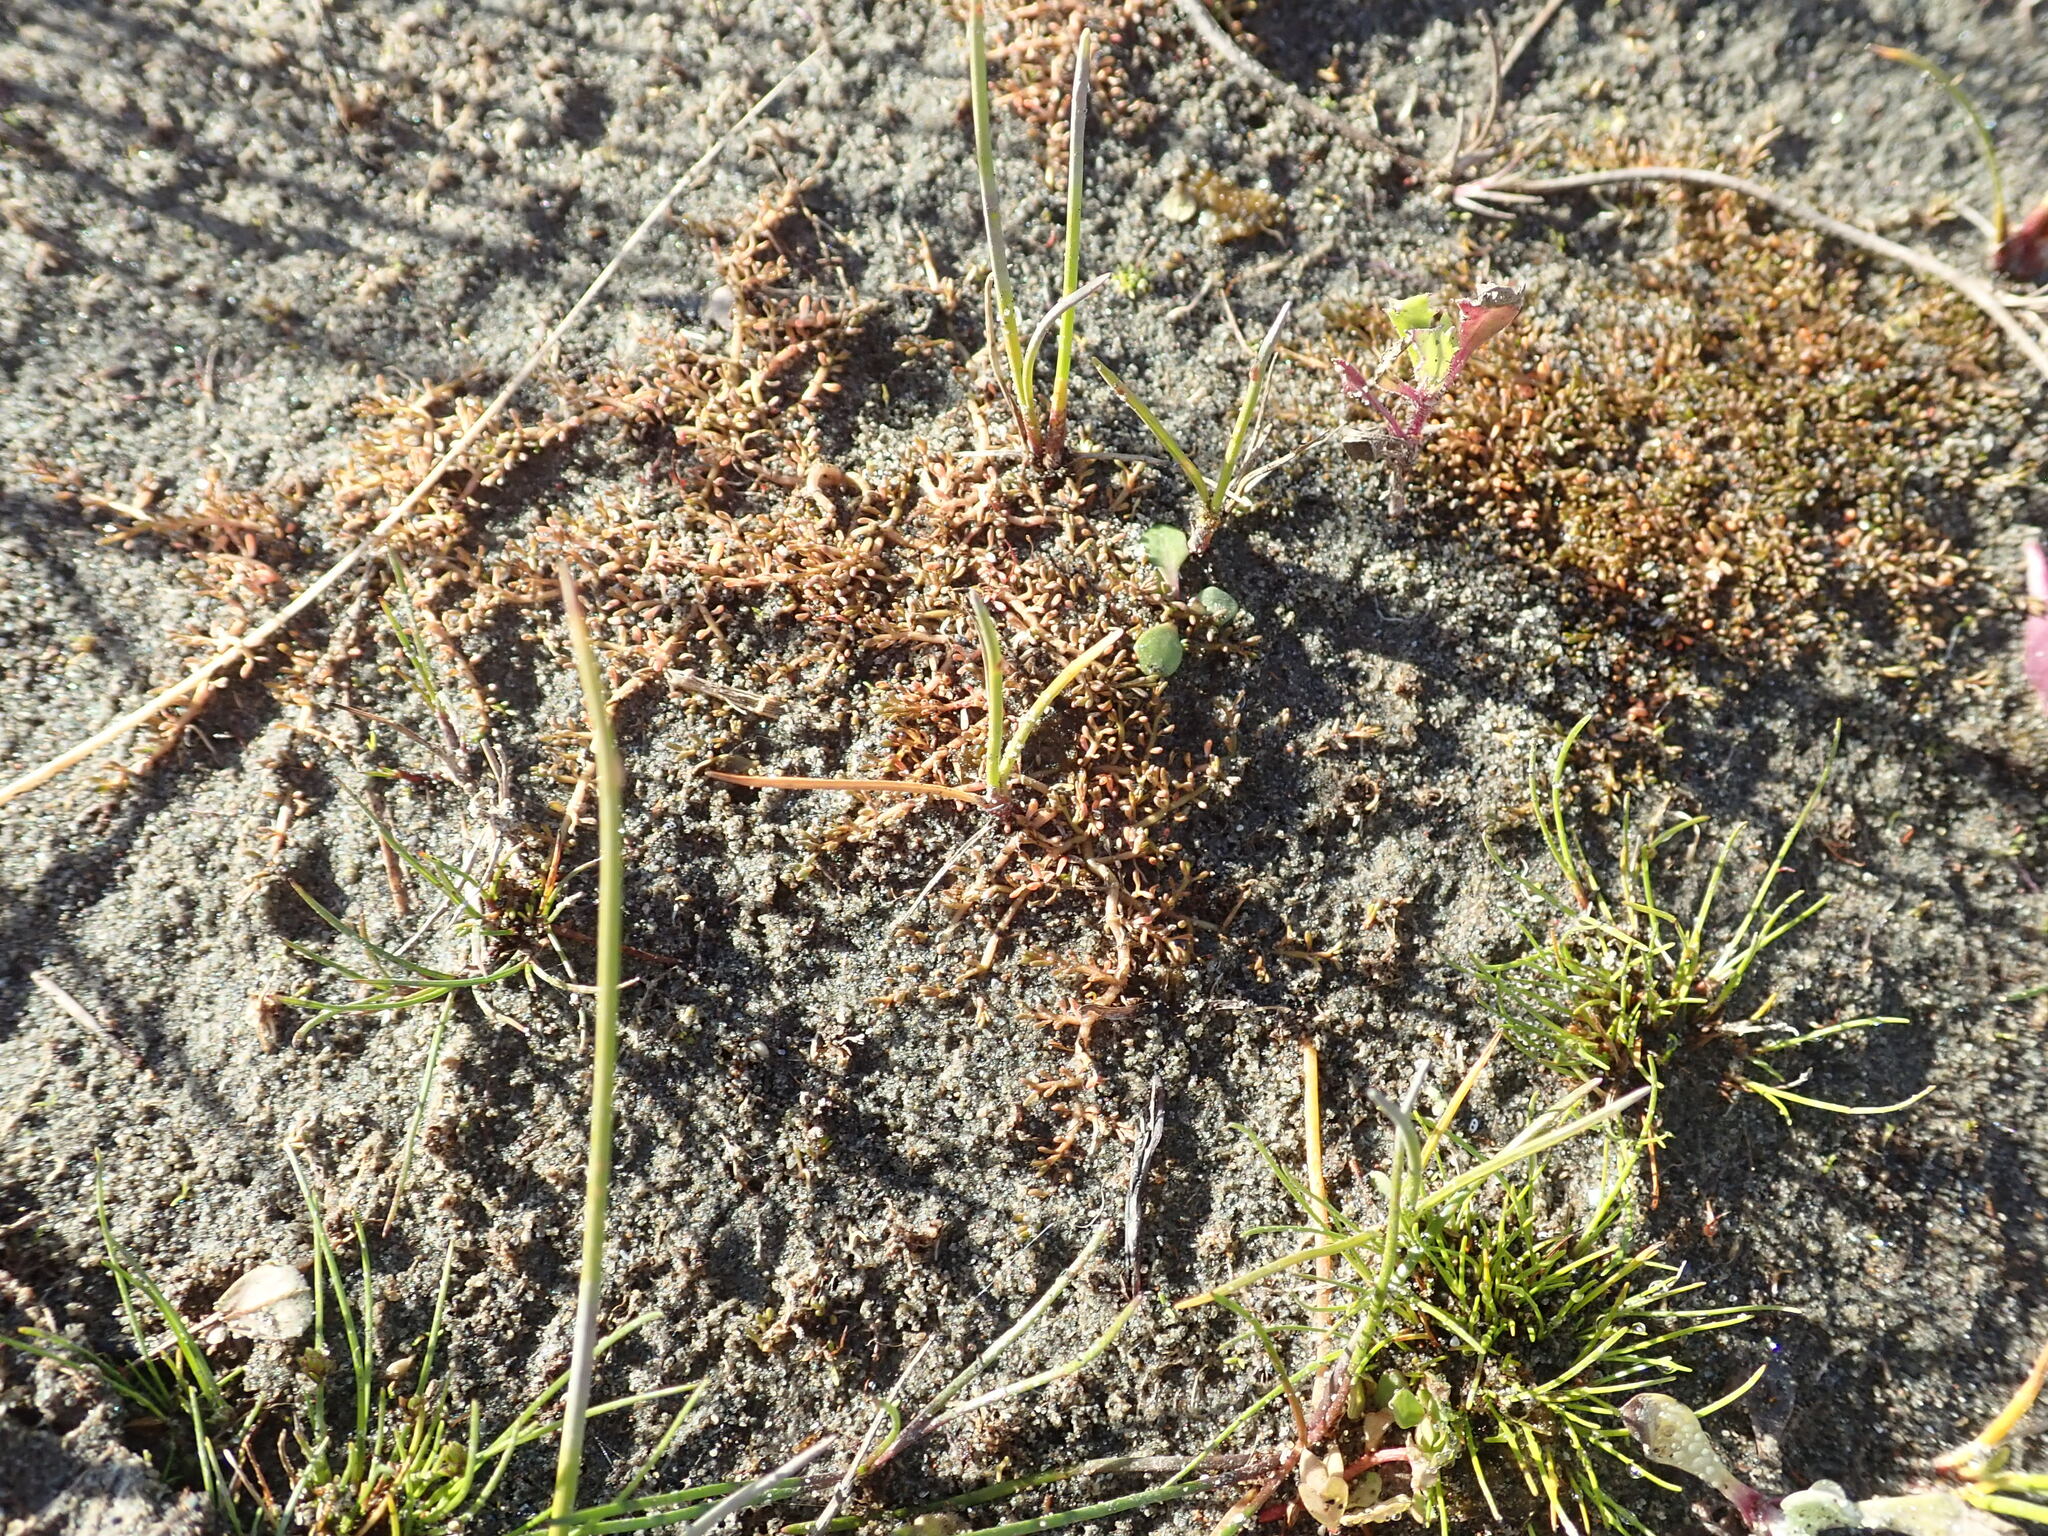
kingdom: Plantae
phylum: Tracheophyta
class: Magnoliopsida
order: Saxifragales
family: Haloragaceae
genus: Myriophyllum
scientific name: Myriophyllum votschii
